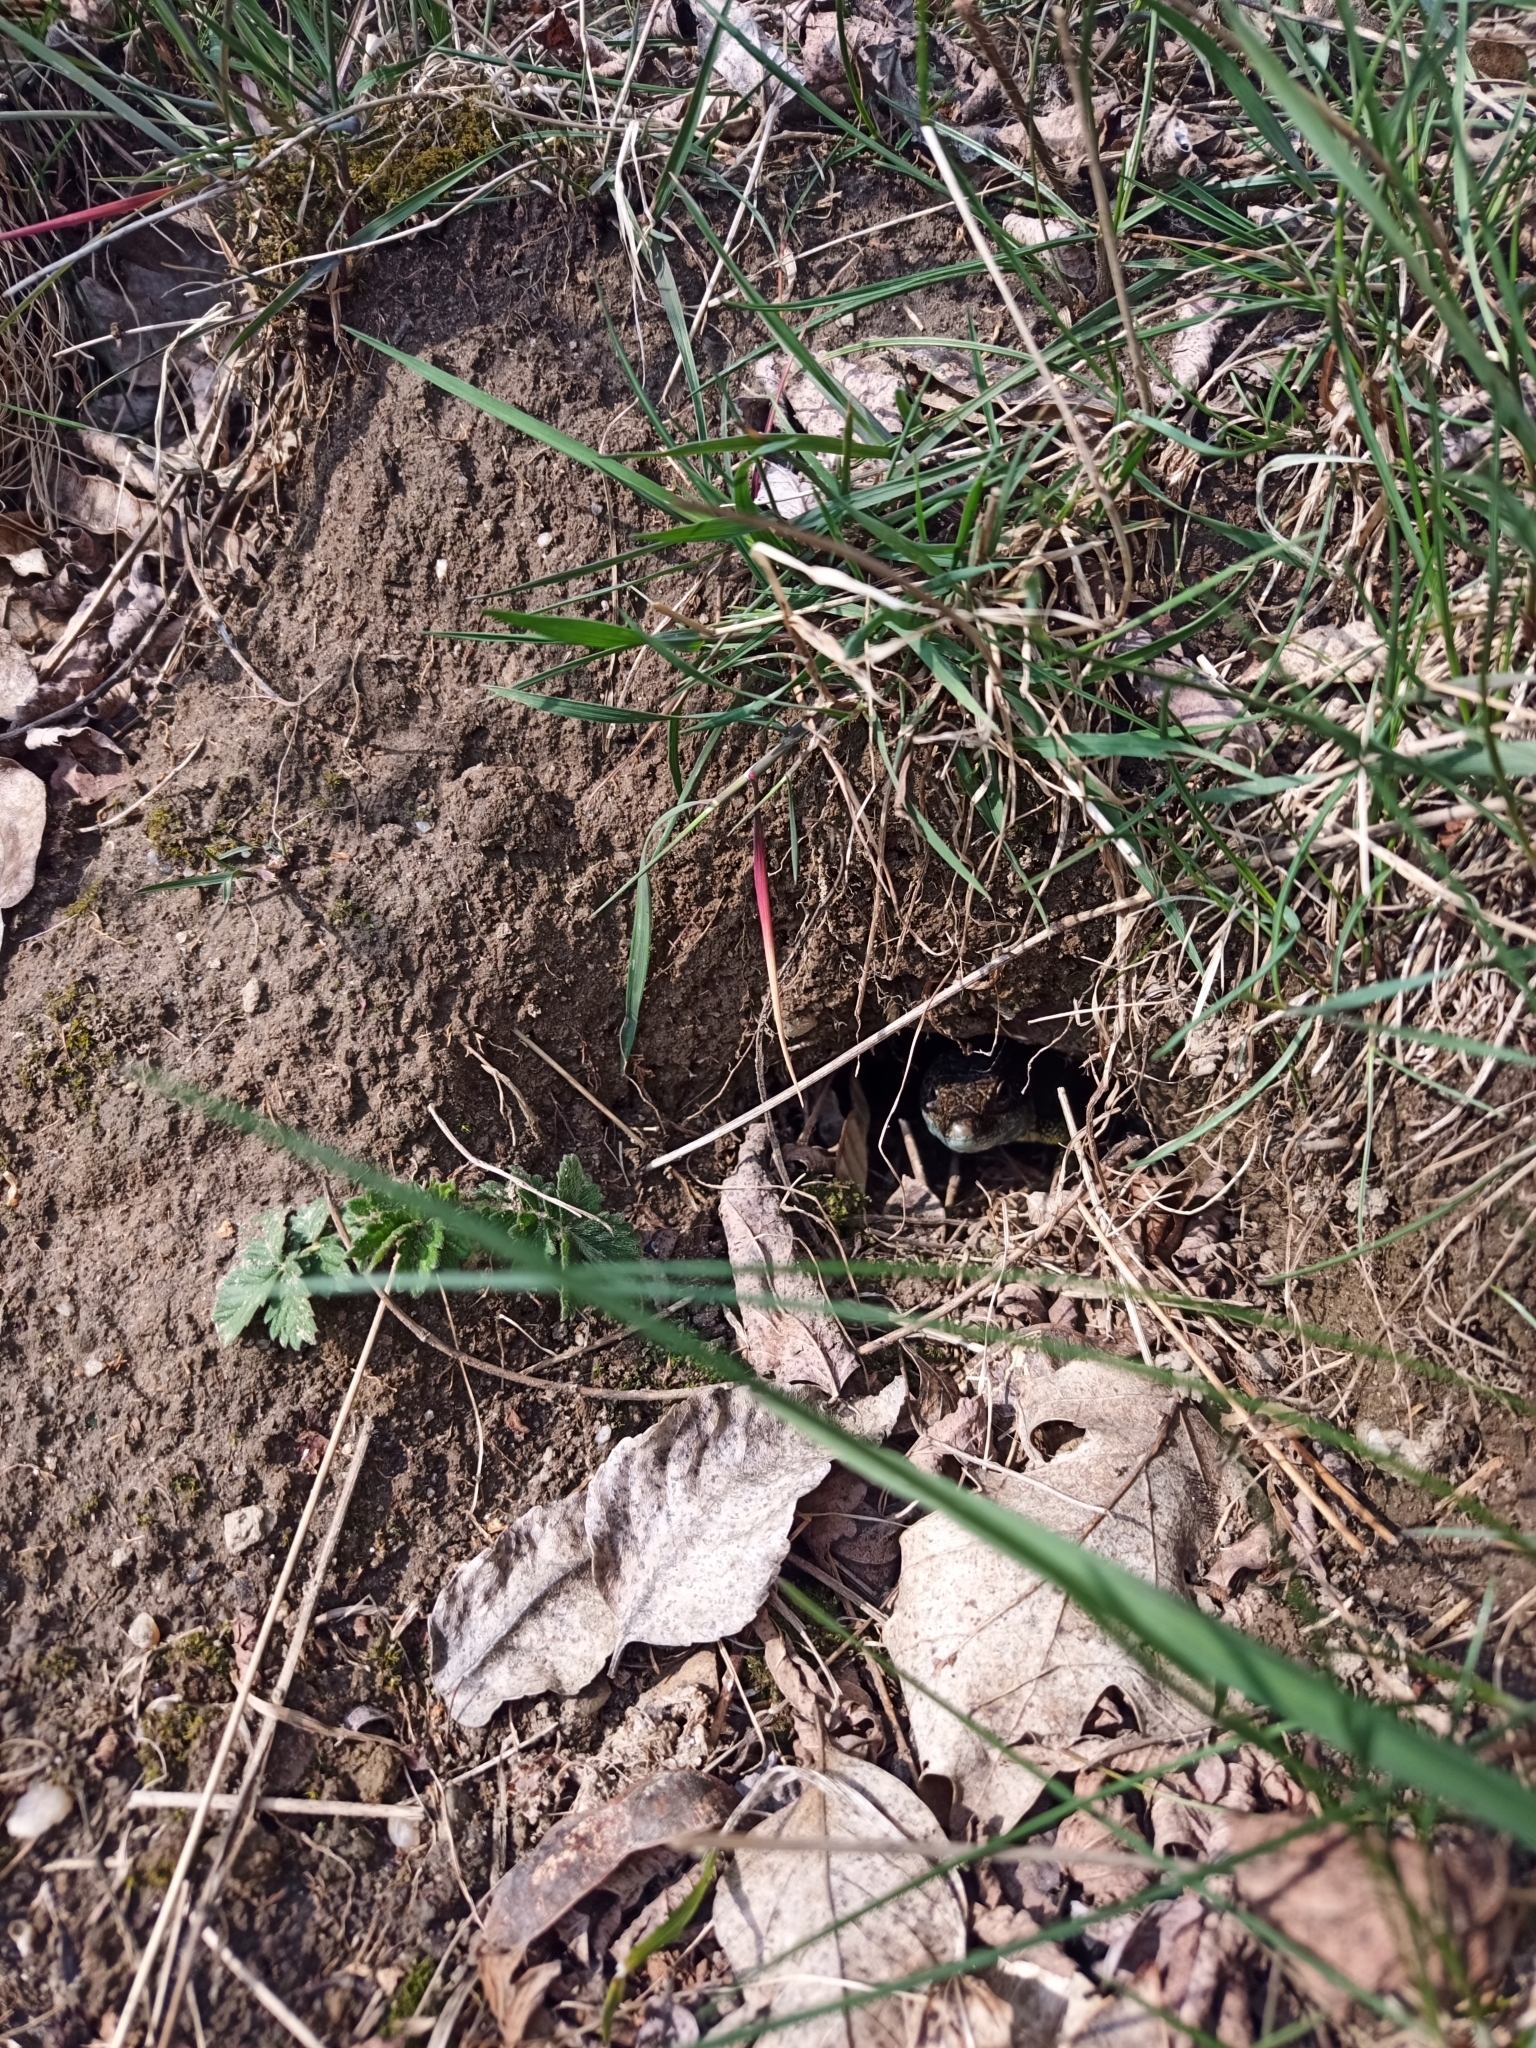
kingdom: Animalia
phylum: Chordata
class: Squamata
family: Lacertidae
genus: Lacerta
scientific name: Lacerta viridis
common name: European green lizard
